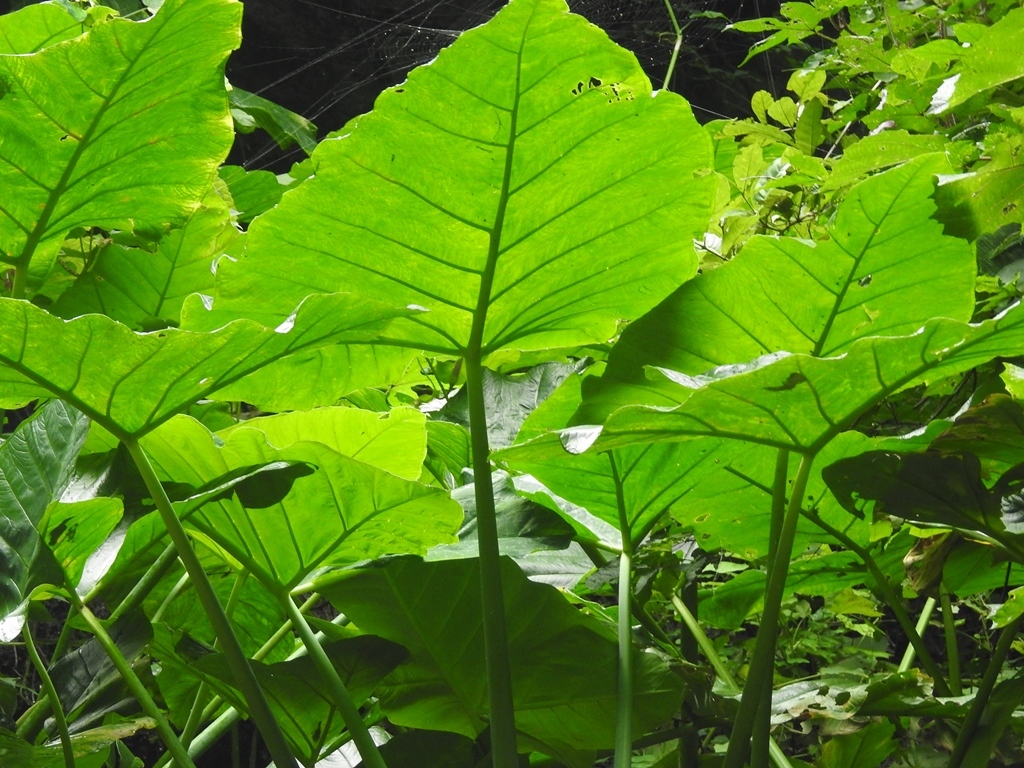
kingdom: Plantae
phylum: Tracheophyta
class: Liliopsida
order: Alismatales
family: Araceae
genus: Xanthosoma
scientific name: Xanthosoma robustum
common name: Capote
